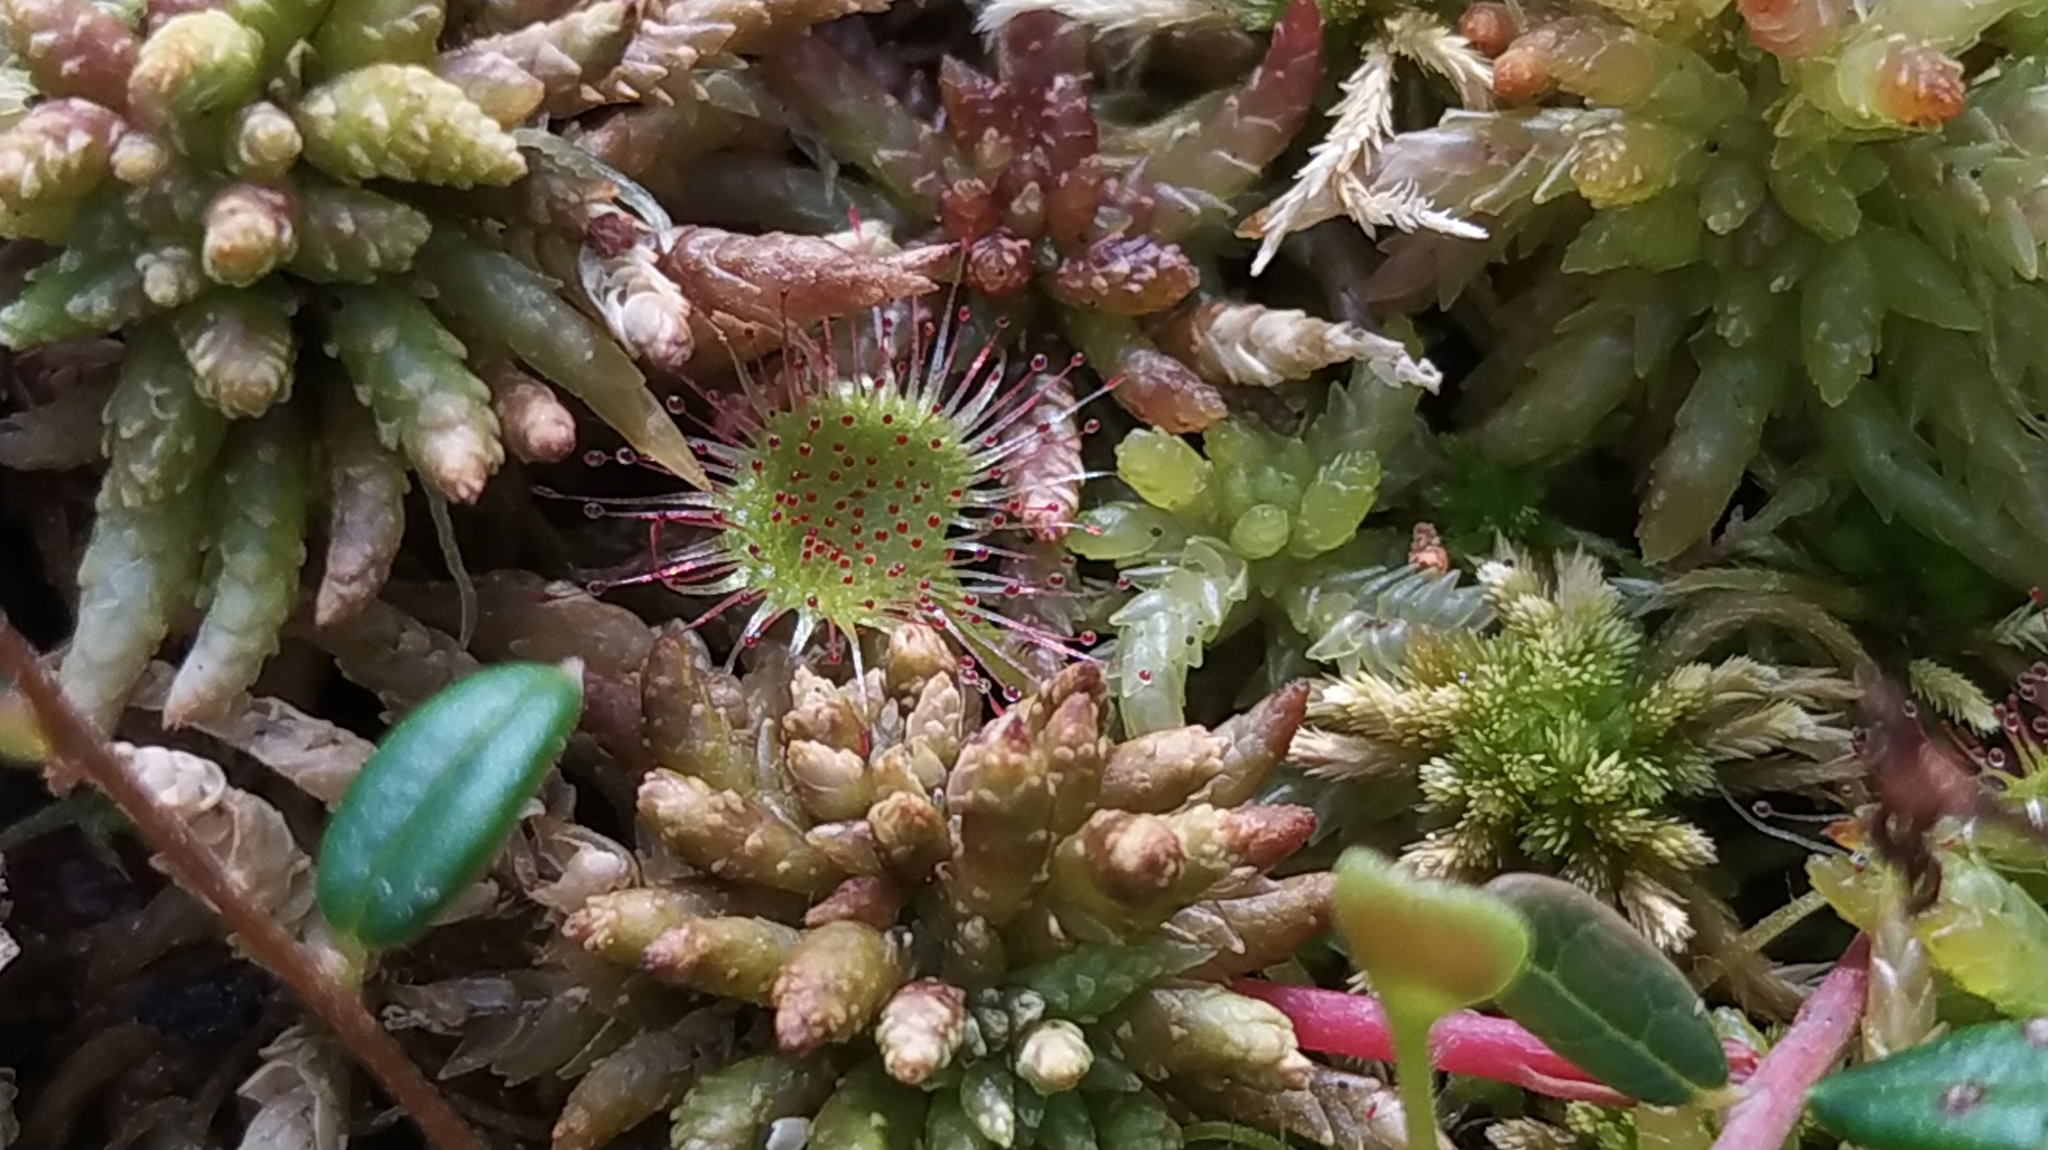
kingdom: Plantae
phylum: Tracheophyta
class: Magnoliopsida
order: Caryophyllales
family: Droseraceae
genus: Drosera
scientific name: Drosera rotundifolia
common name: Round-leaved sundew
